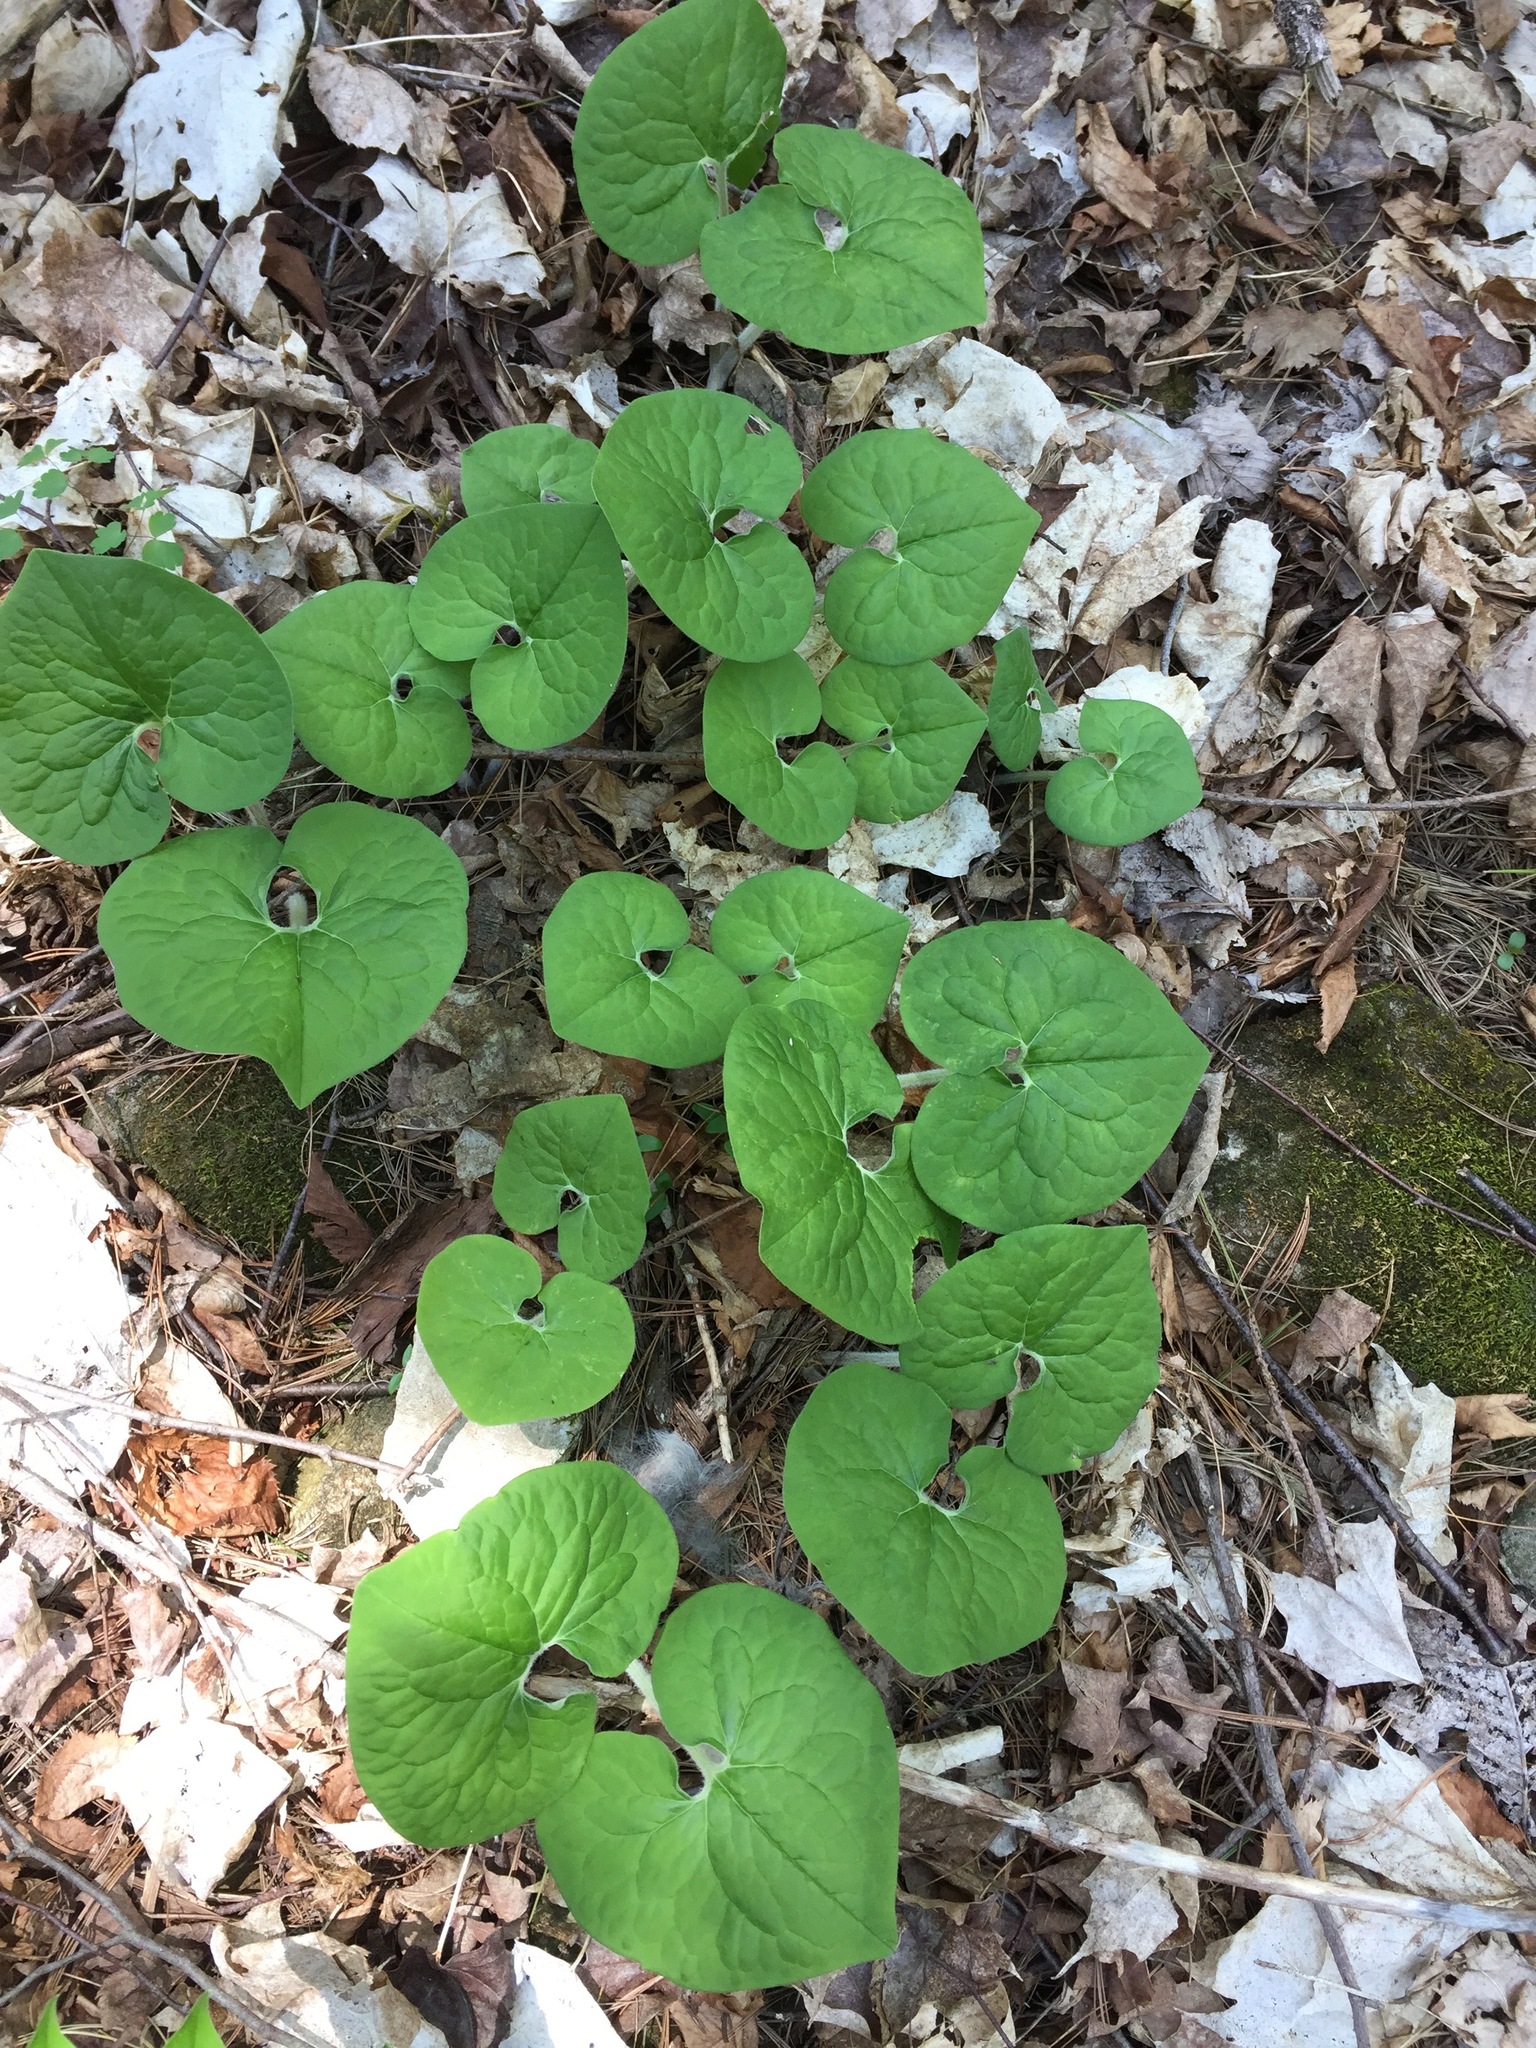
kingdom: Plantae
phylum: Tracheophyta
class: Magnoliopsida
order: Piperales
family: Aristolochiaceae
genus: Asarum
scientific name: Asarum canadense
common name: Wild ginger
